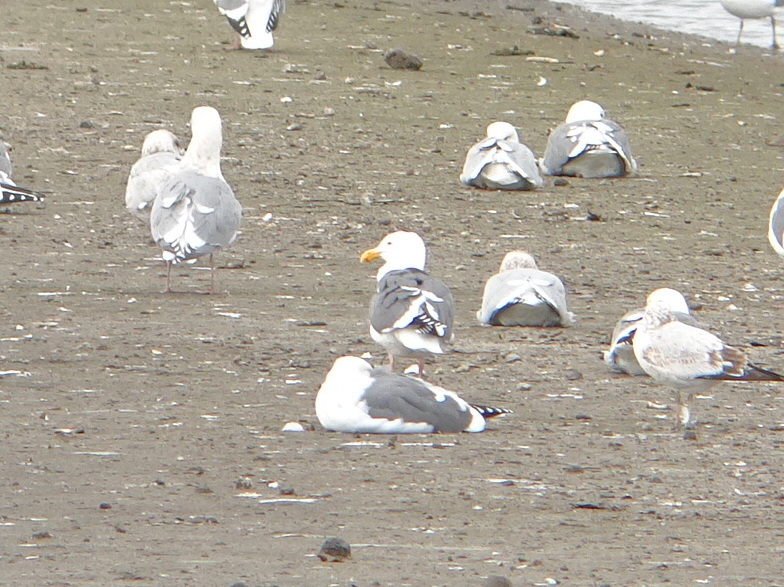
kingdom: Animalia
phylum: Chordata
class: Aves
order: Charadriiformes
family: Laridae
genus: Larus
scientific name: Larus occidentalis
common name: Western gull
